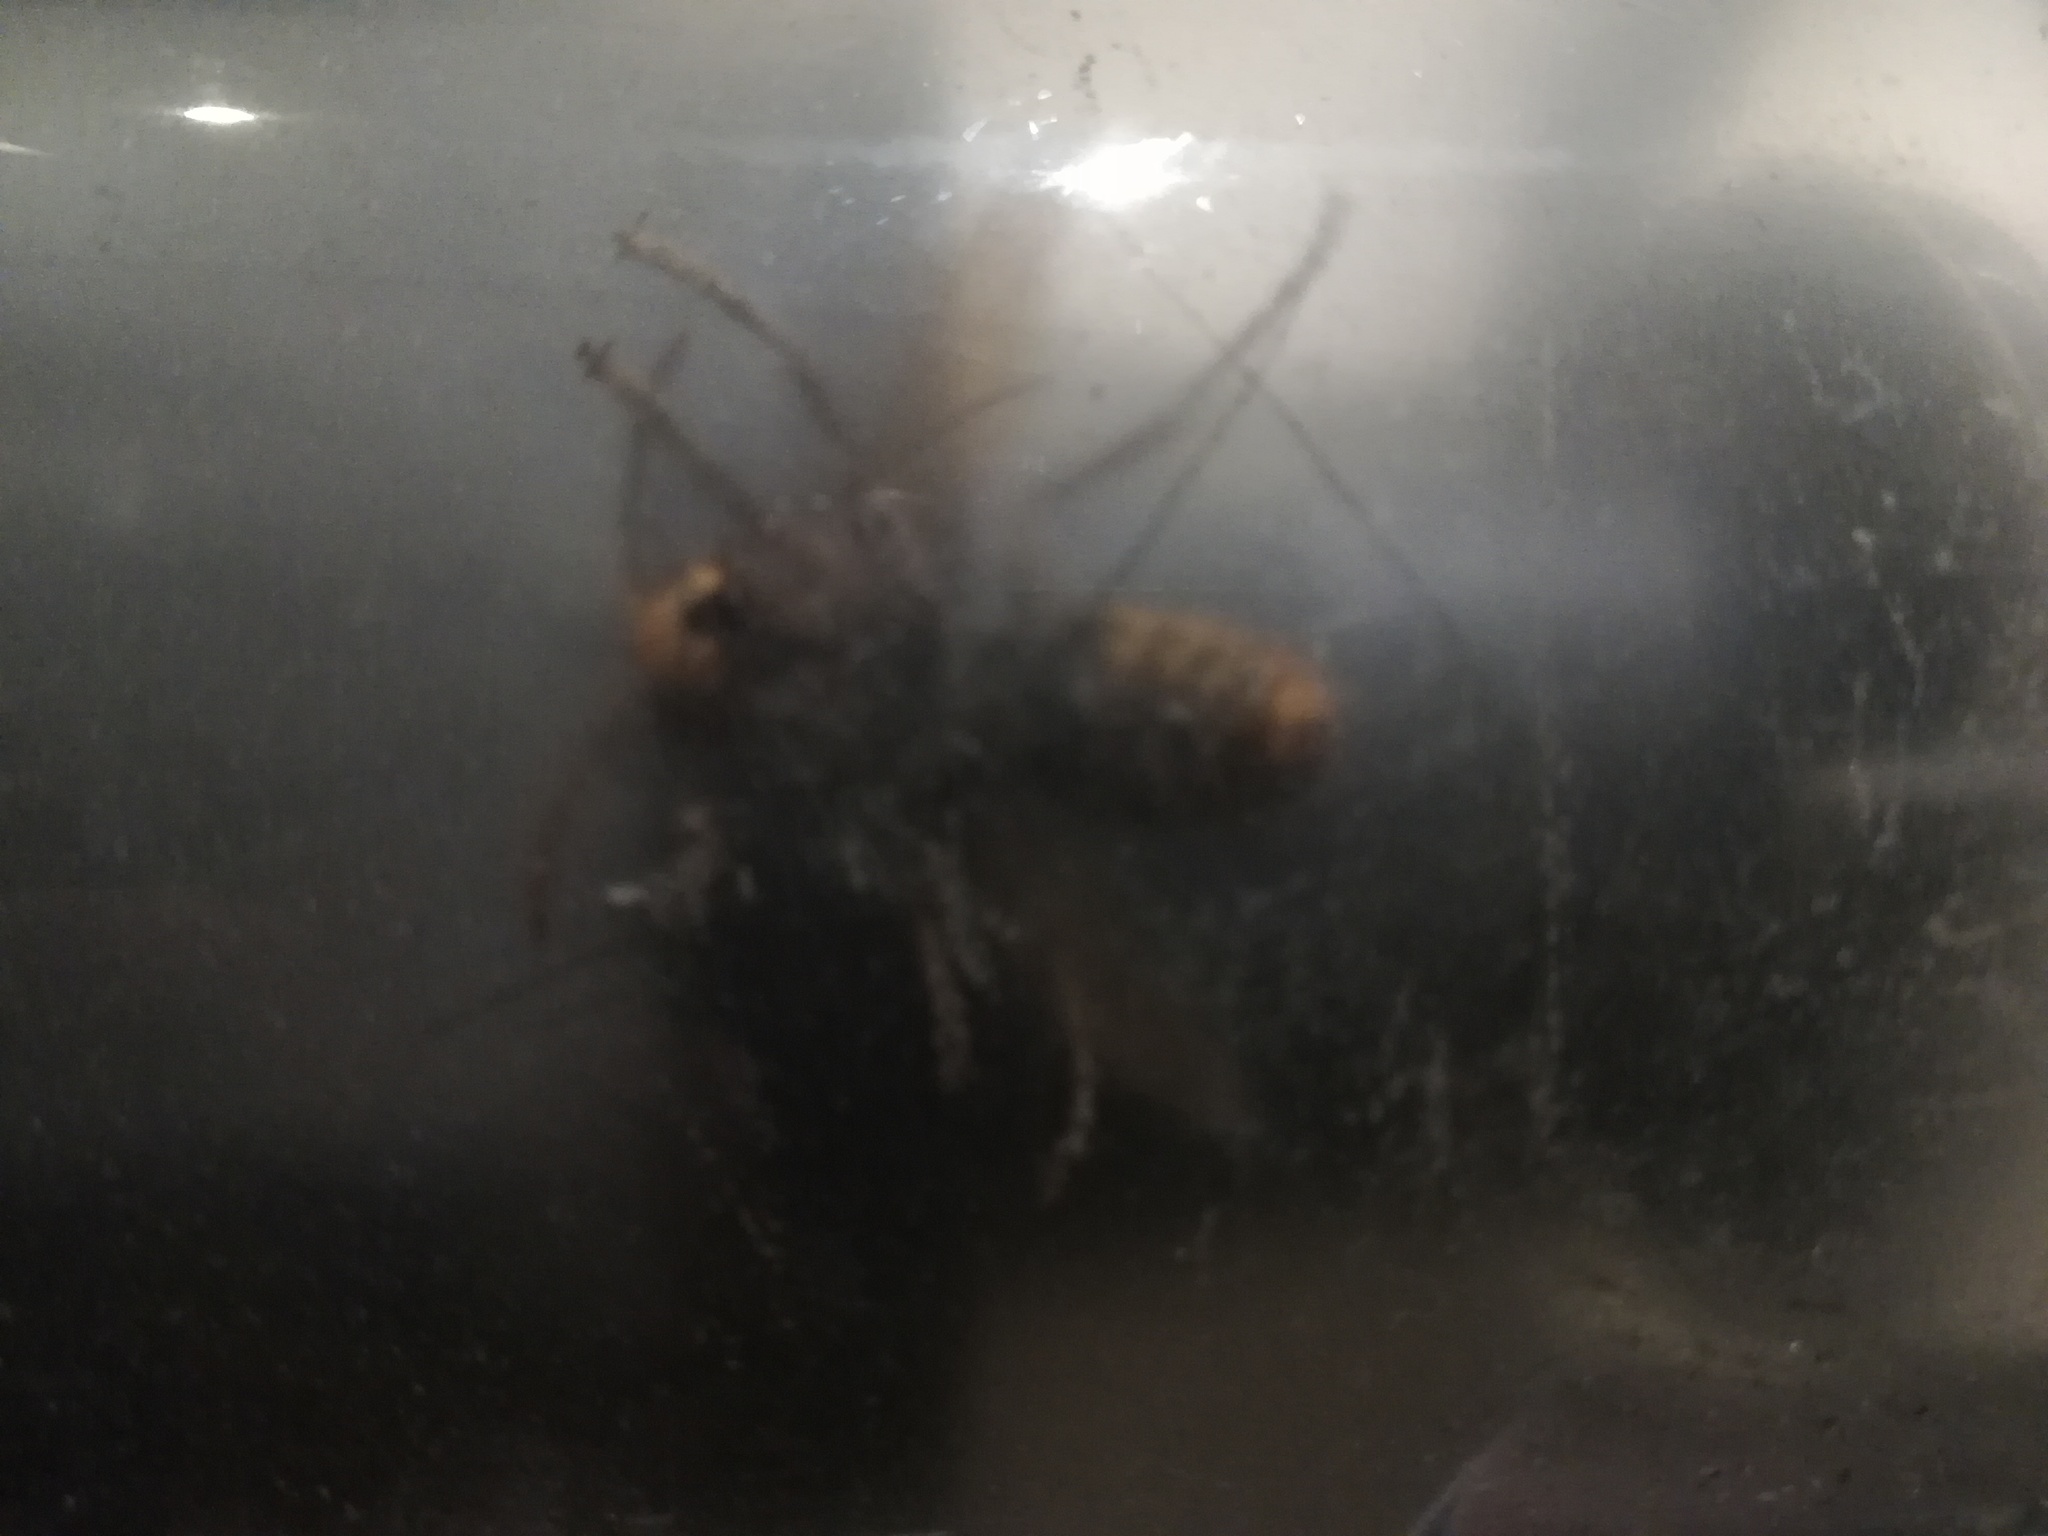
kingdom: Animalia
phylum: Arthropoda
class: Insecta
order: Hymenoptera
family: Vespidae
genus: Vespa
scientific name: Vespa crabro
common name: Hornet
